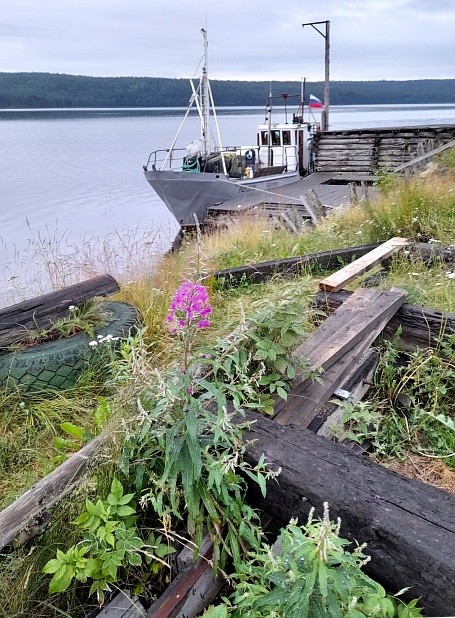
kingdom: Plantae
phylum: Tracheophyta
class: Magnoliopsida
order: Myrtales
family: Onagraceae
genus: Chamaenerion
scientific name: Chamaenerion angustifolium
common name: Fireweed
